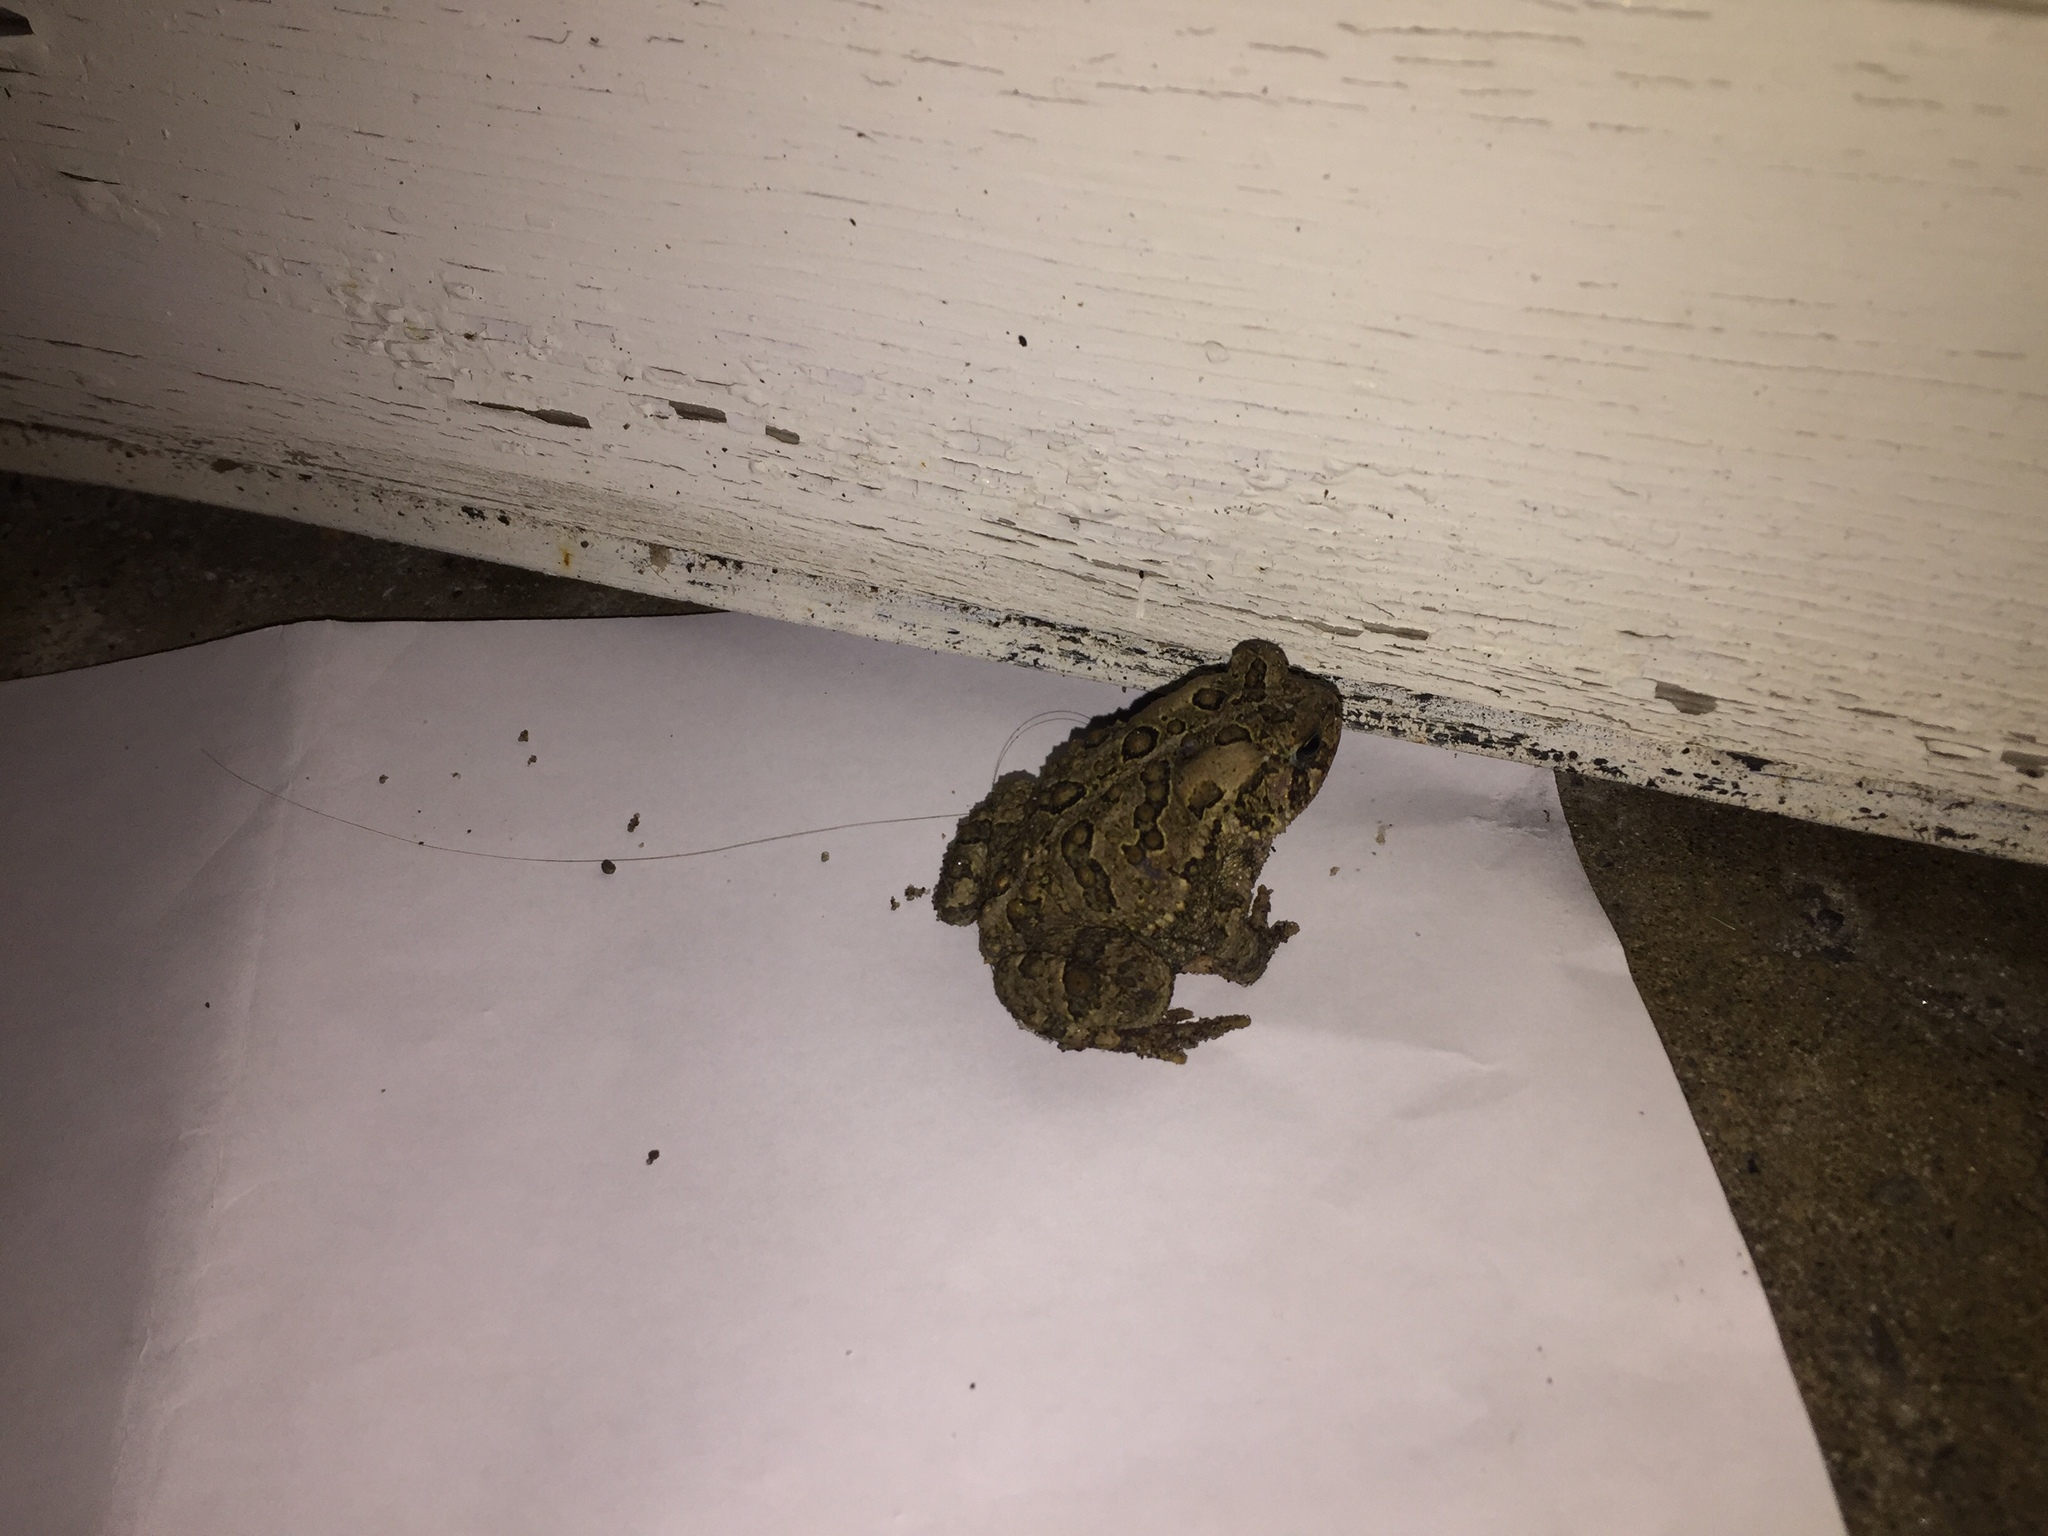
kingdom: Animalia
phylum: Chordata
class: Amphibia
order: Anura
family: Bufonidae
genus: Anaxyrus
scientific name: Anaxyrus americanus
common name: American toad
